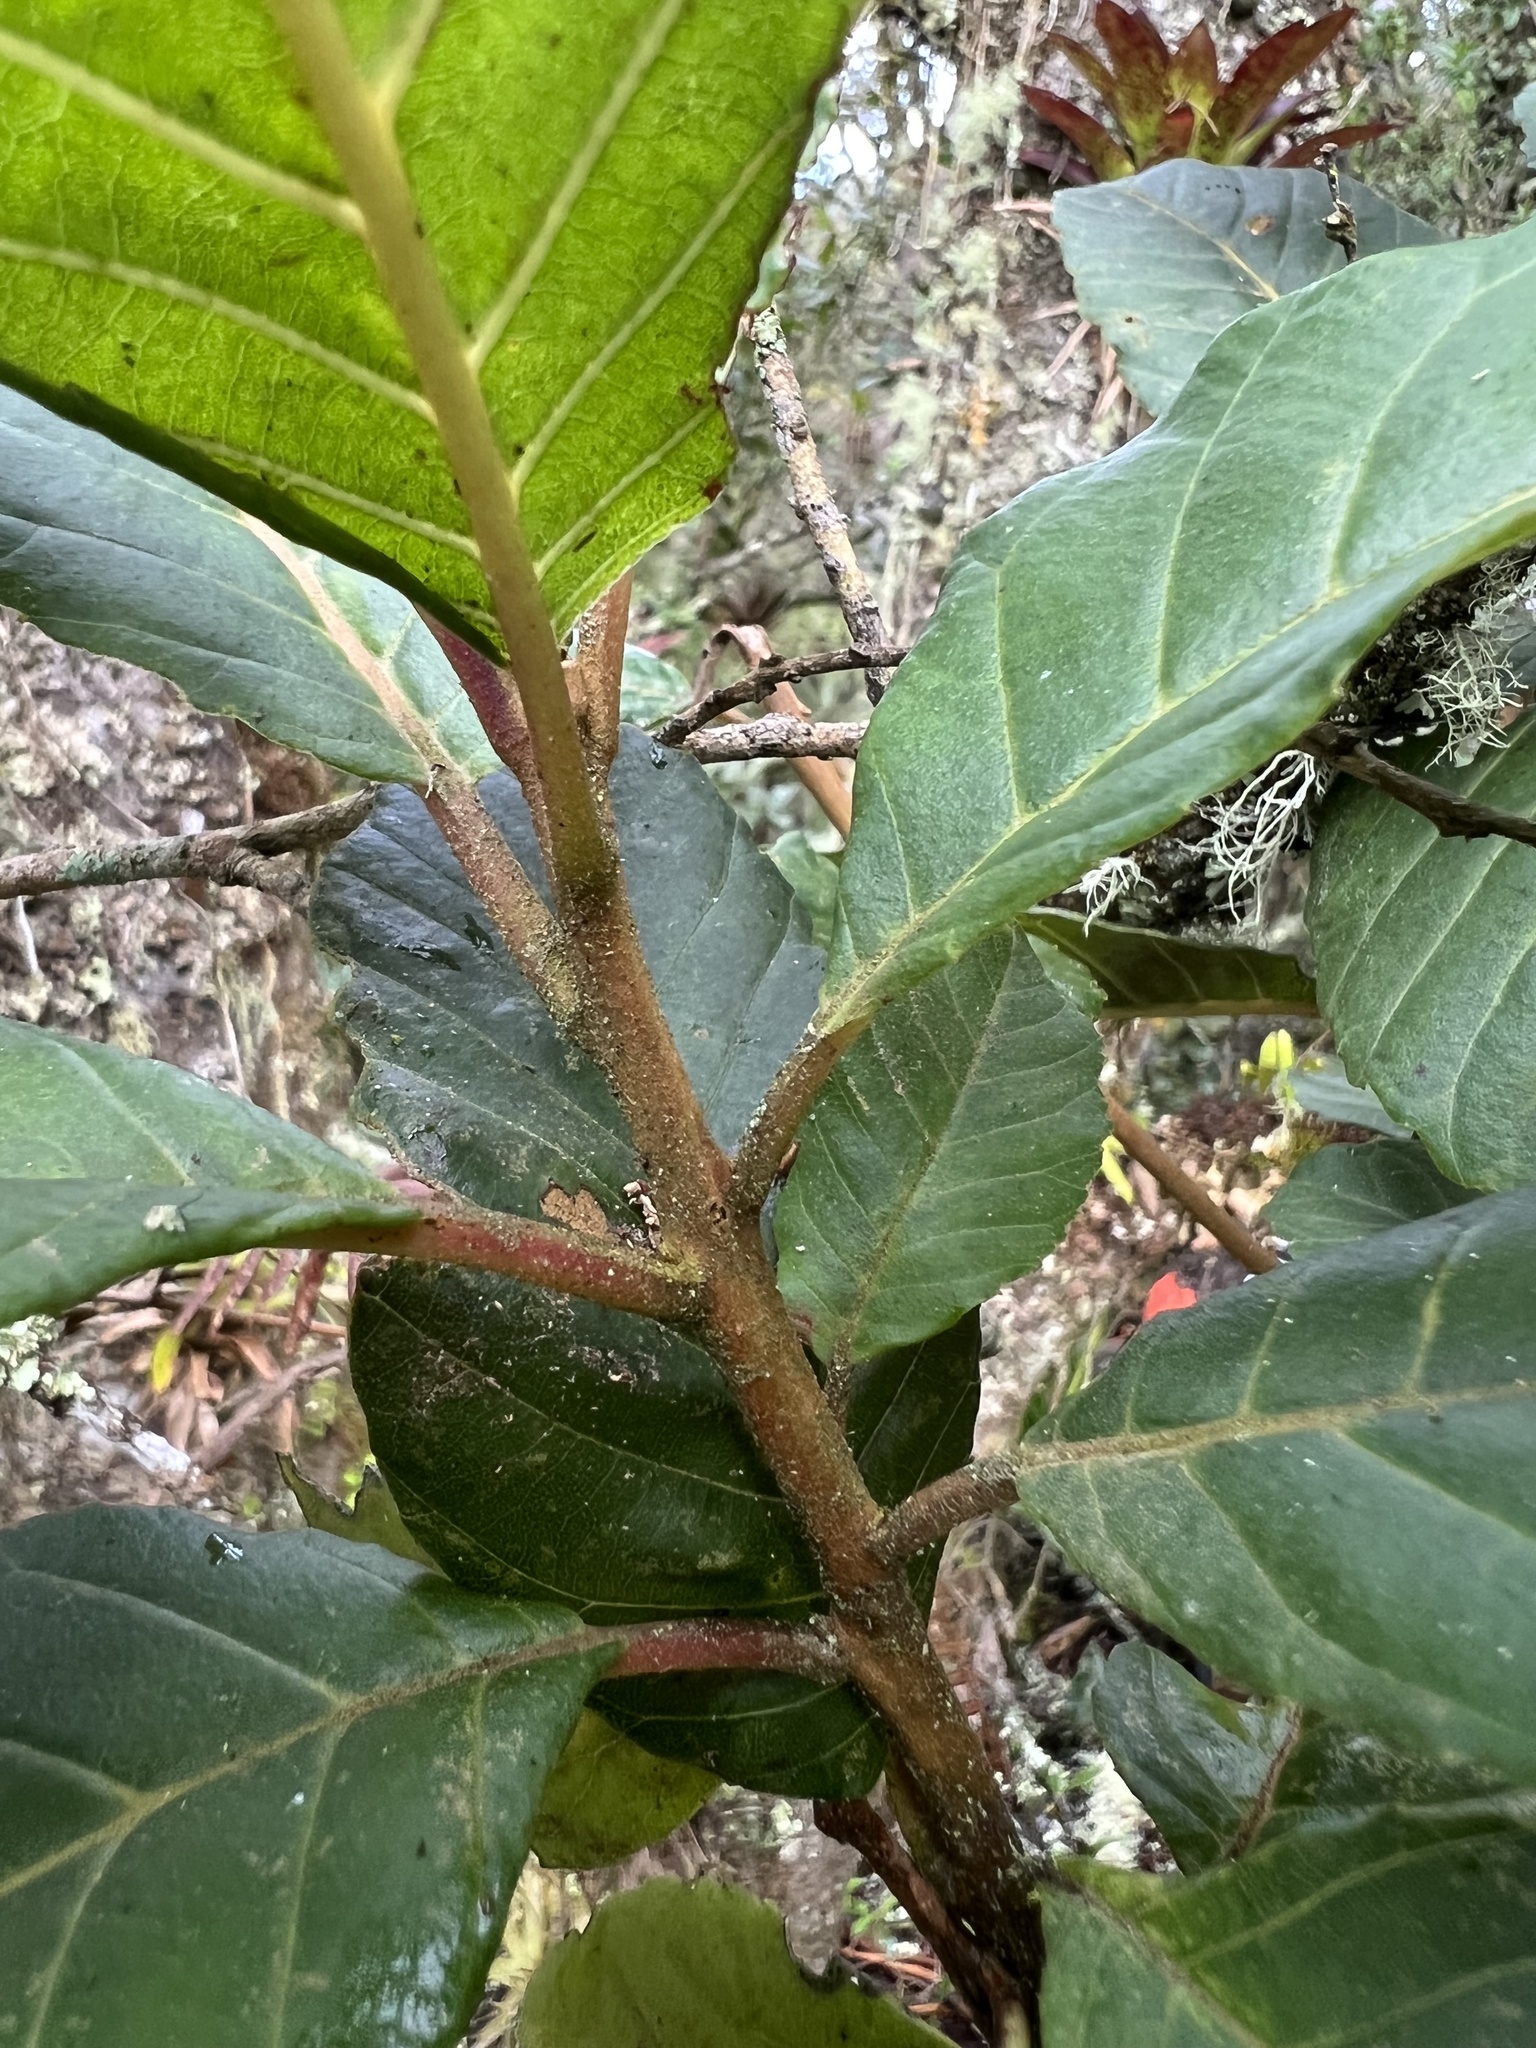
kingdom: Plantae
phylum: Tracheophyta
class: Magnoliopsida
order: Ericales
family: Clethraceae
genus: Clethra
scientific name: Clethra fagifolia
